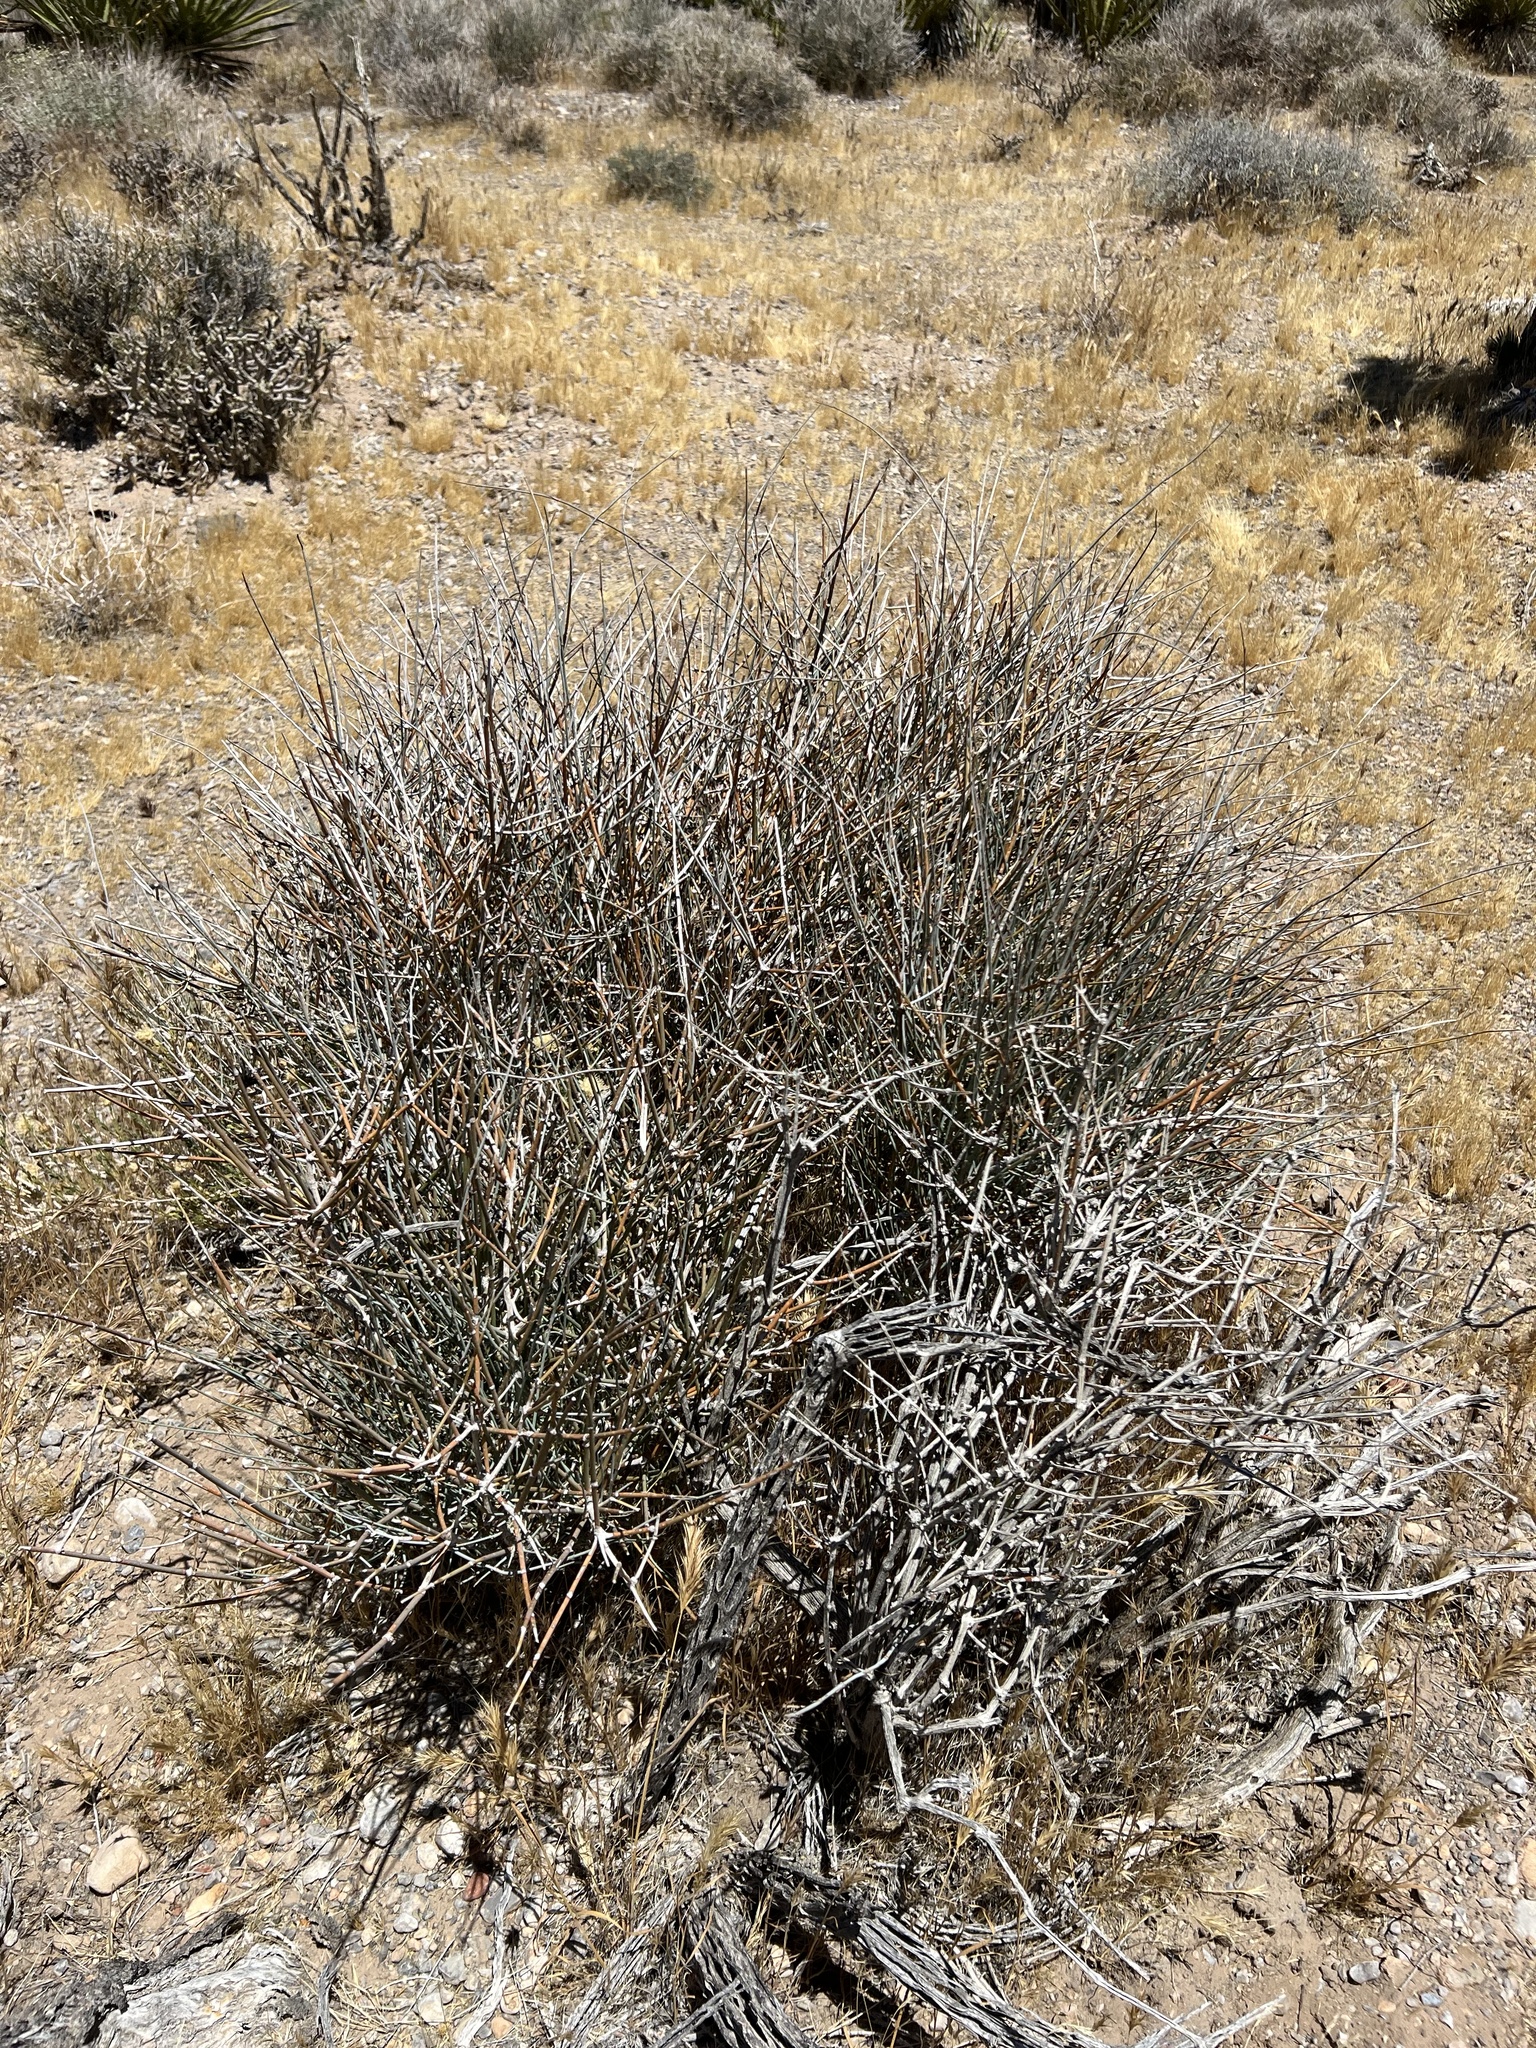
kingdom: Plantae
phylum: Tracheophyta
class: Gnetopsida
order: Ephedrales
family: Ephedraceae
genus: Ephedra
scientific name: Ephedra nevadensis
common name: Gray ephedra
